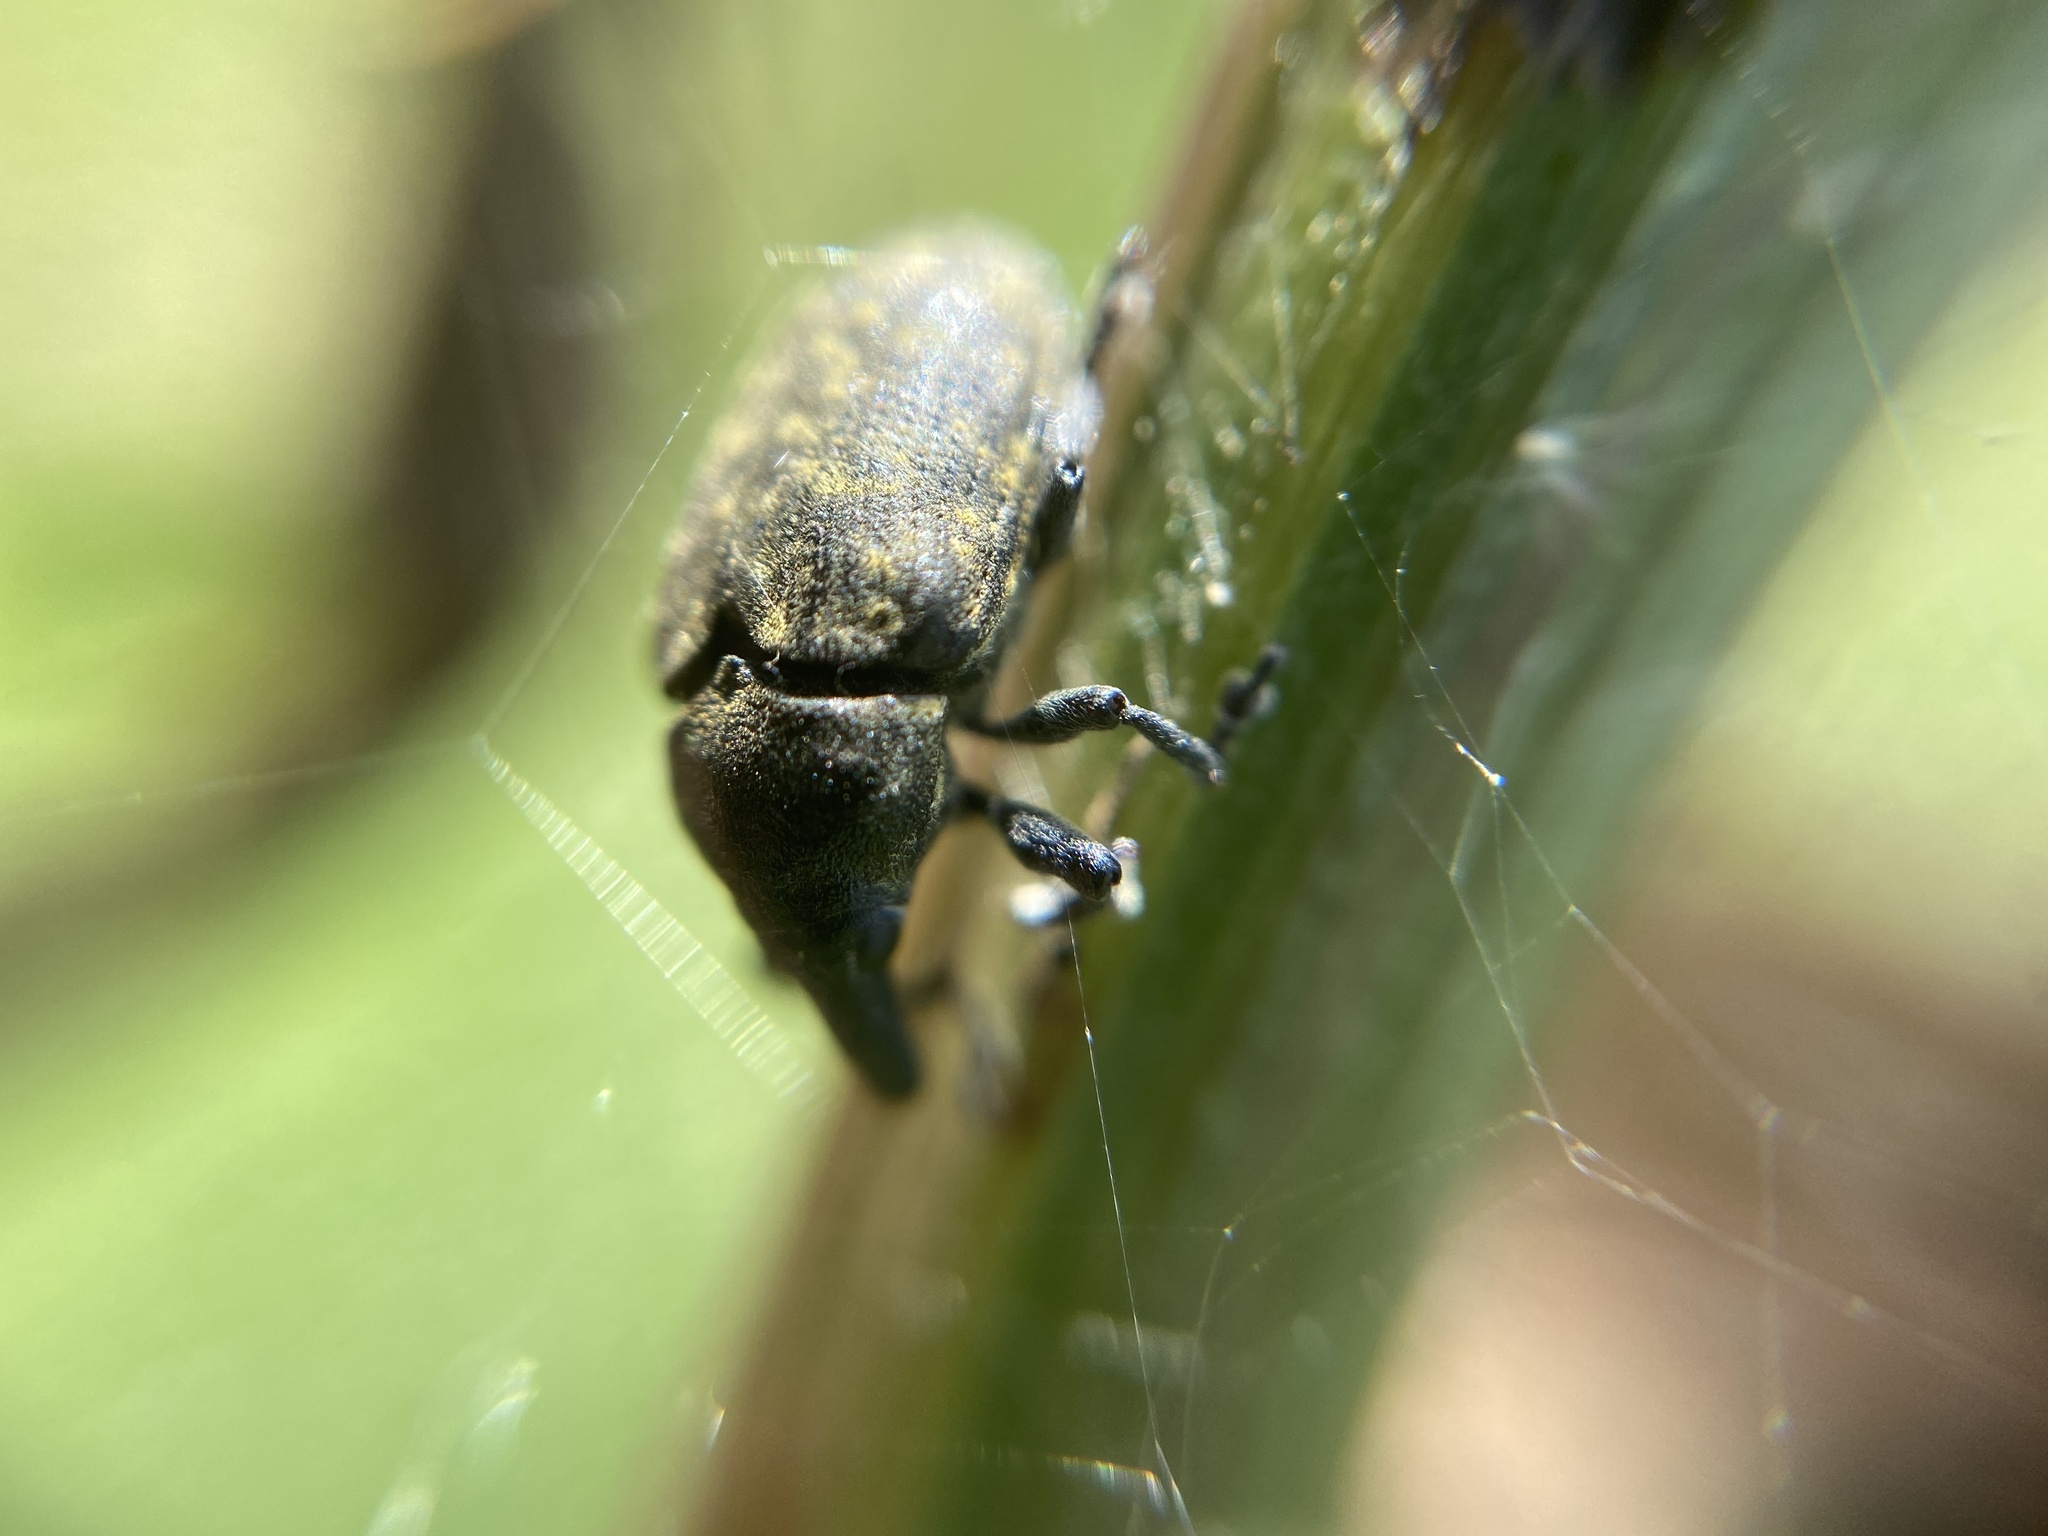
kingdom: Animalia
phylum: Arthropoda
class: Insecta
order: Coleoptera
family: Curculionidae
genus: Larinus
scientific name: Larinus turbinatus
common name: Weevil
